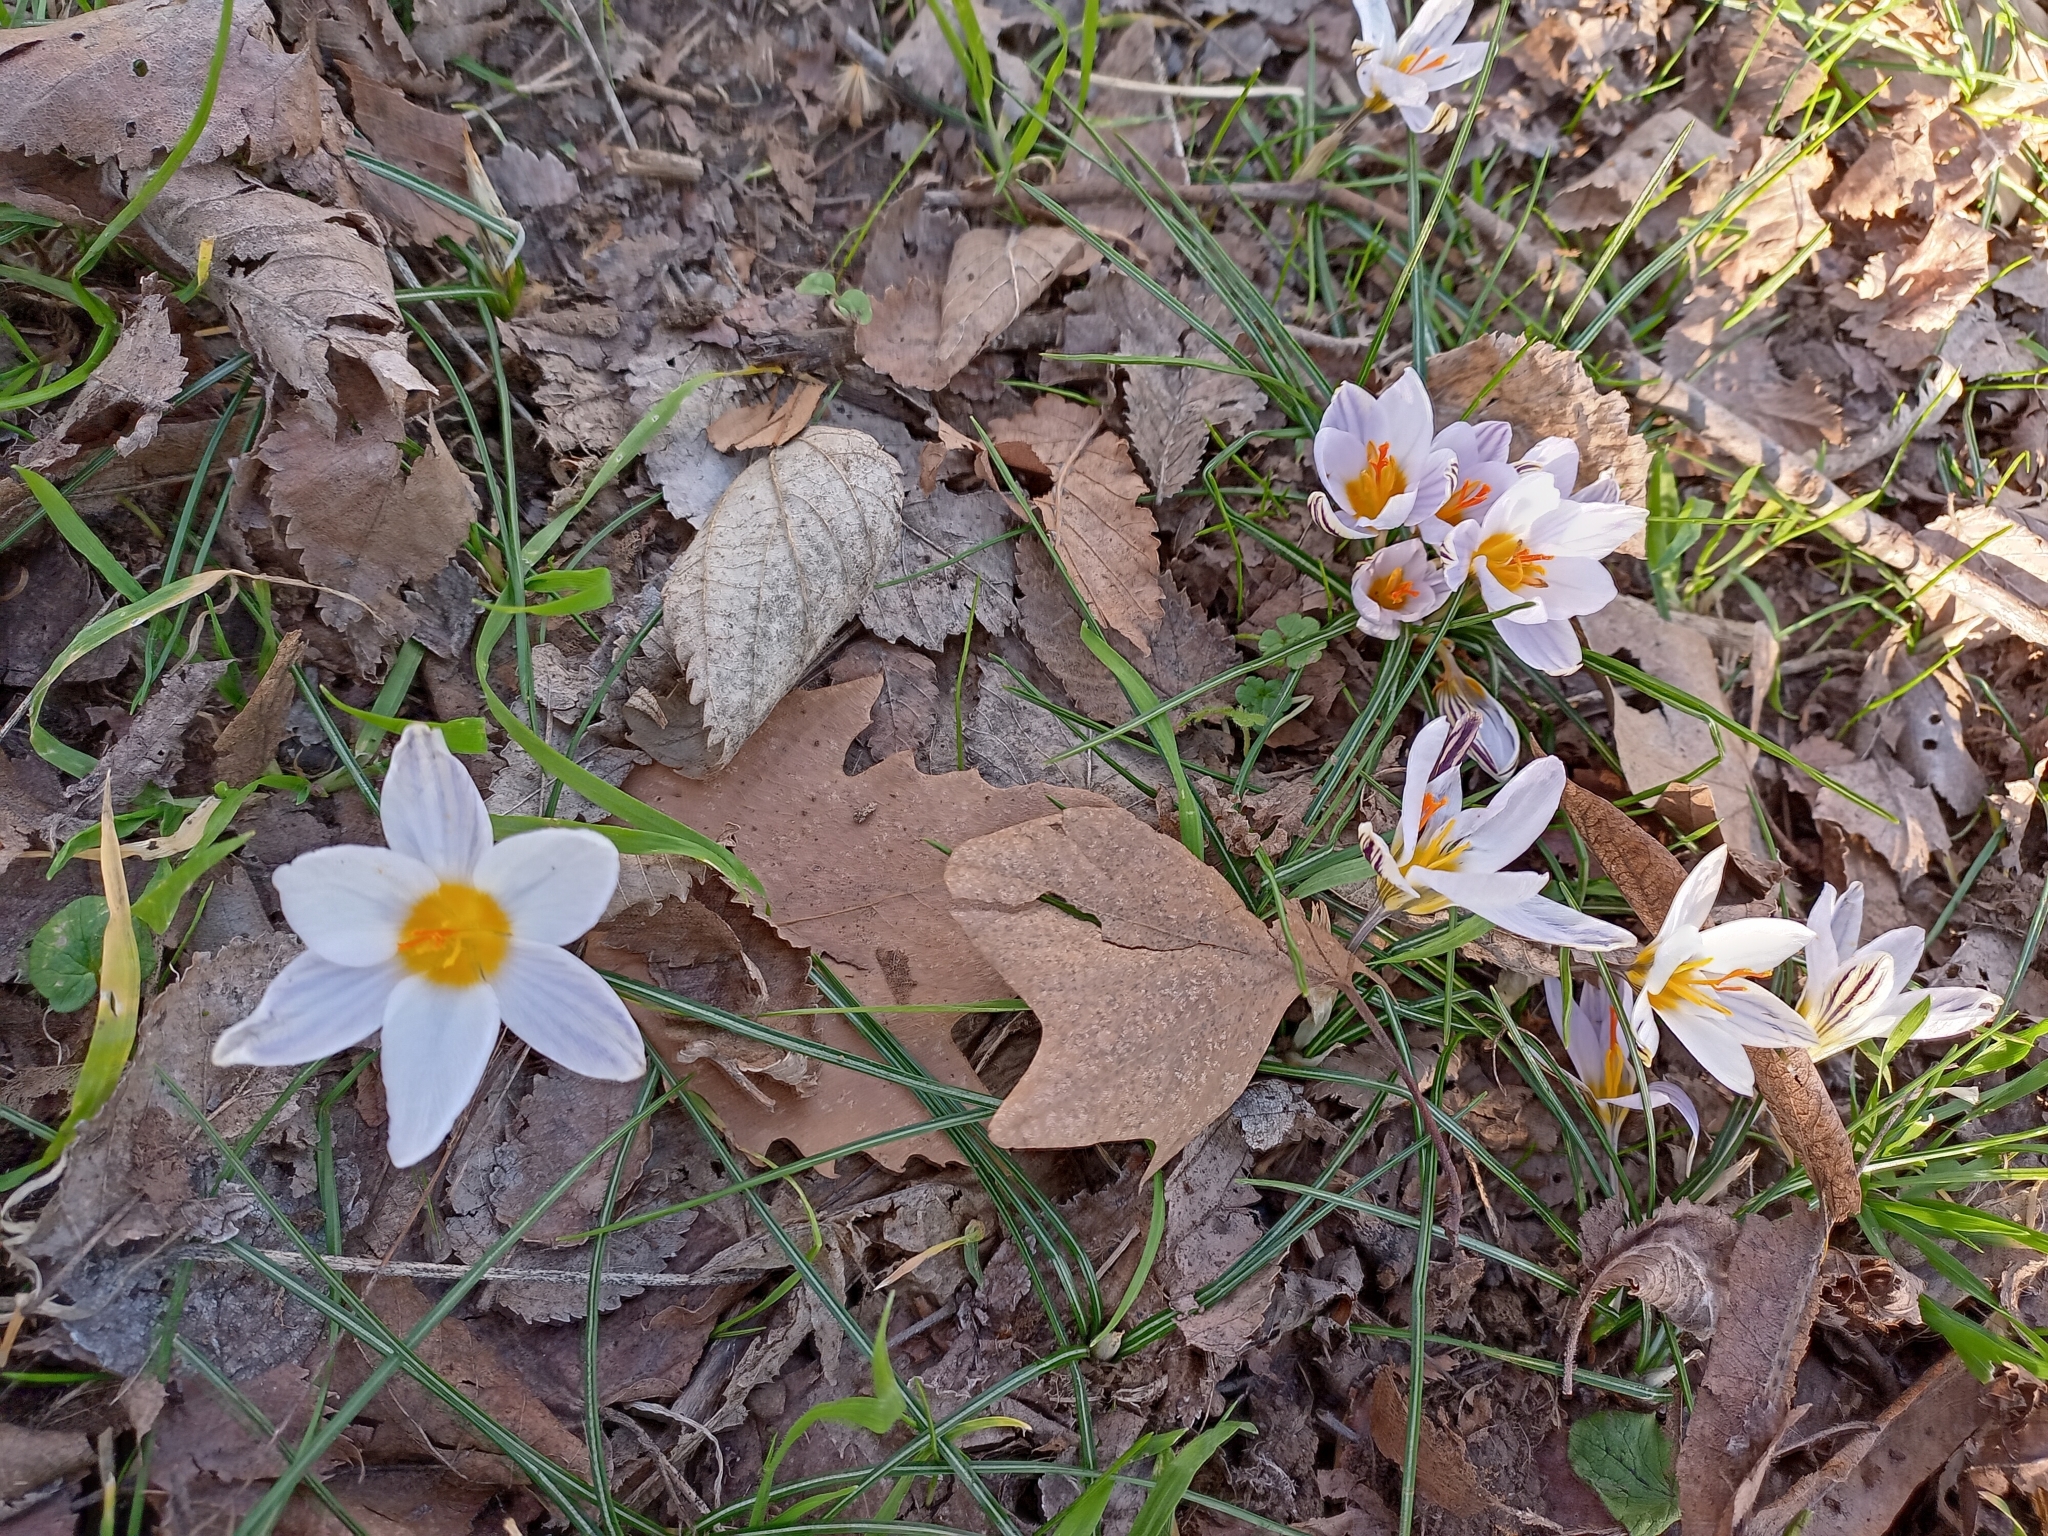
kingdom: Plantae
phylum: Tracheophyta
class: Liliopsida
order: Asparagales
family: Iridaceae
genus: Crocus
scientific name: Crocus biflorus
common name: Silvery crocus
